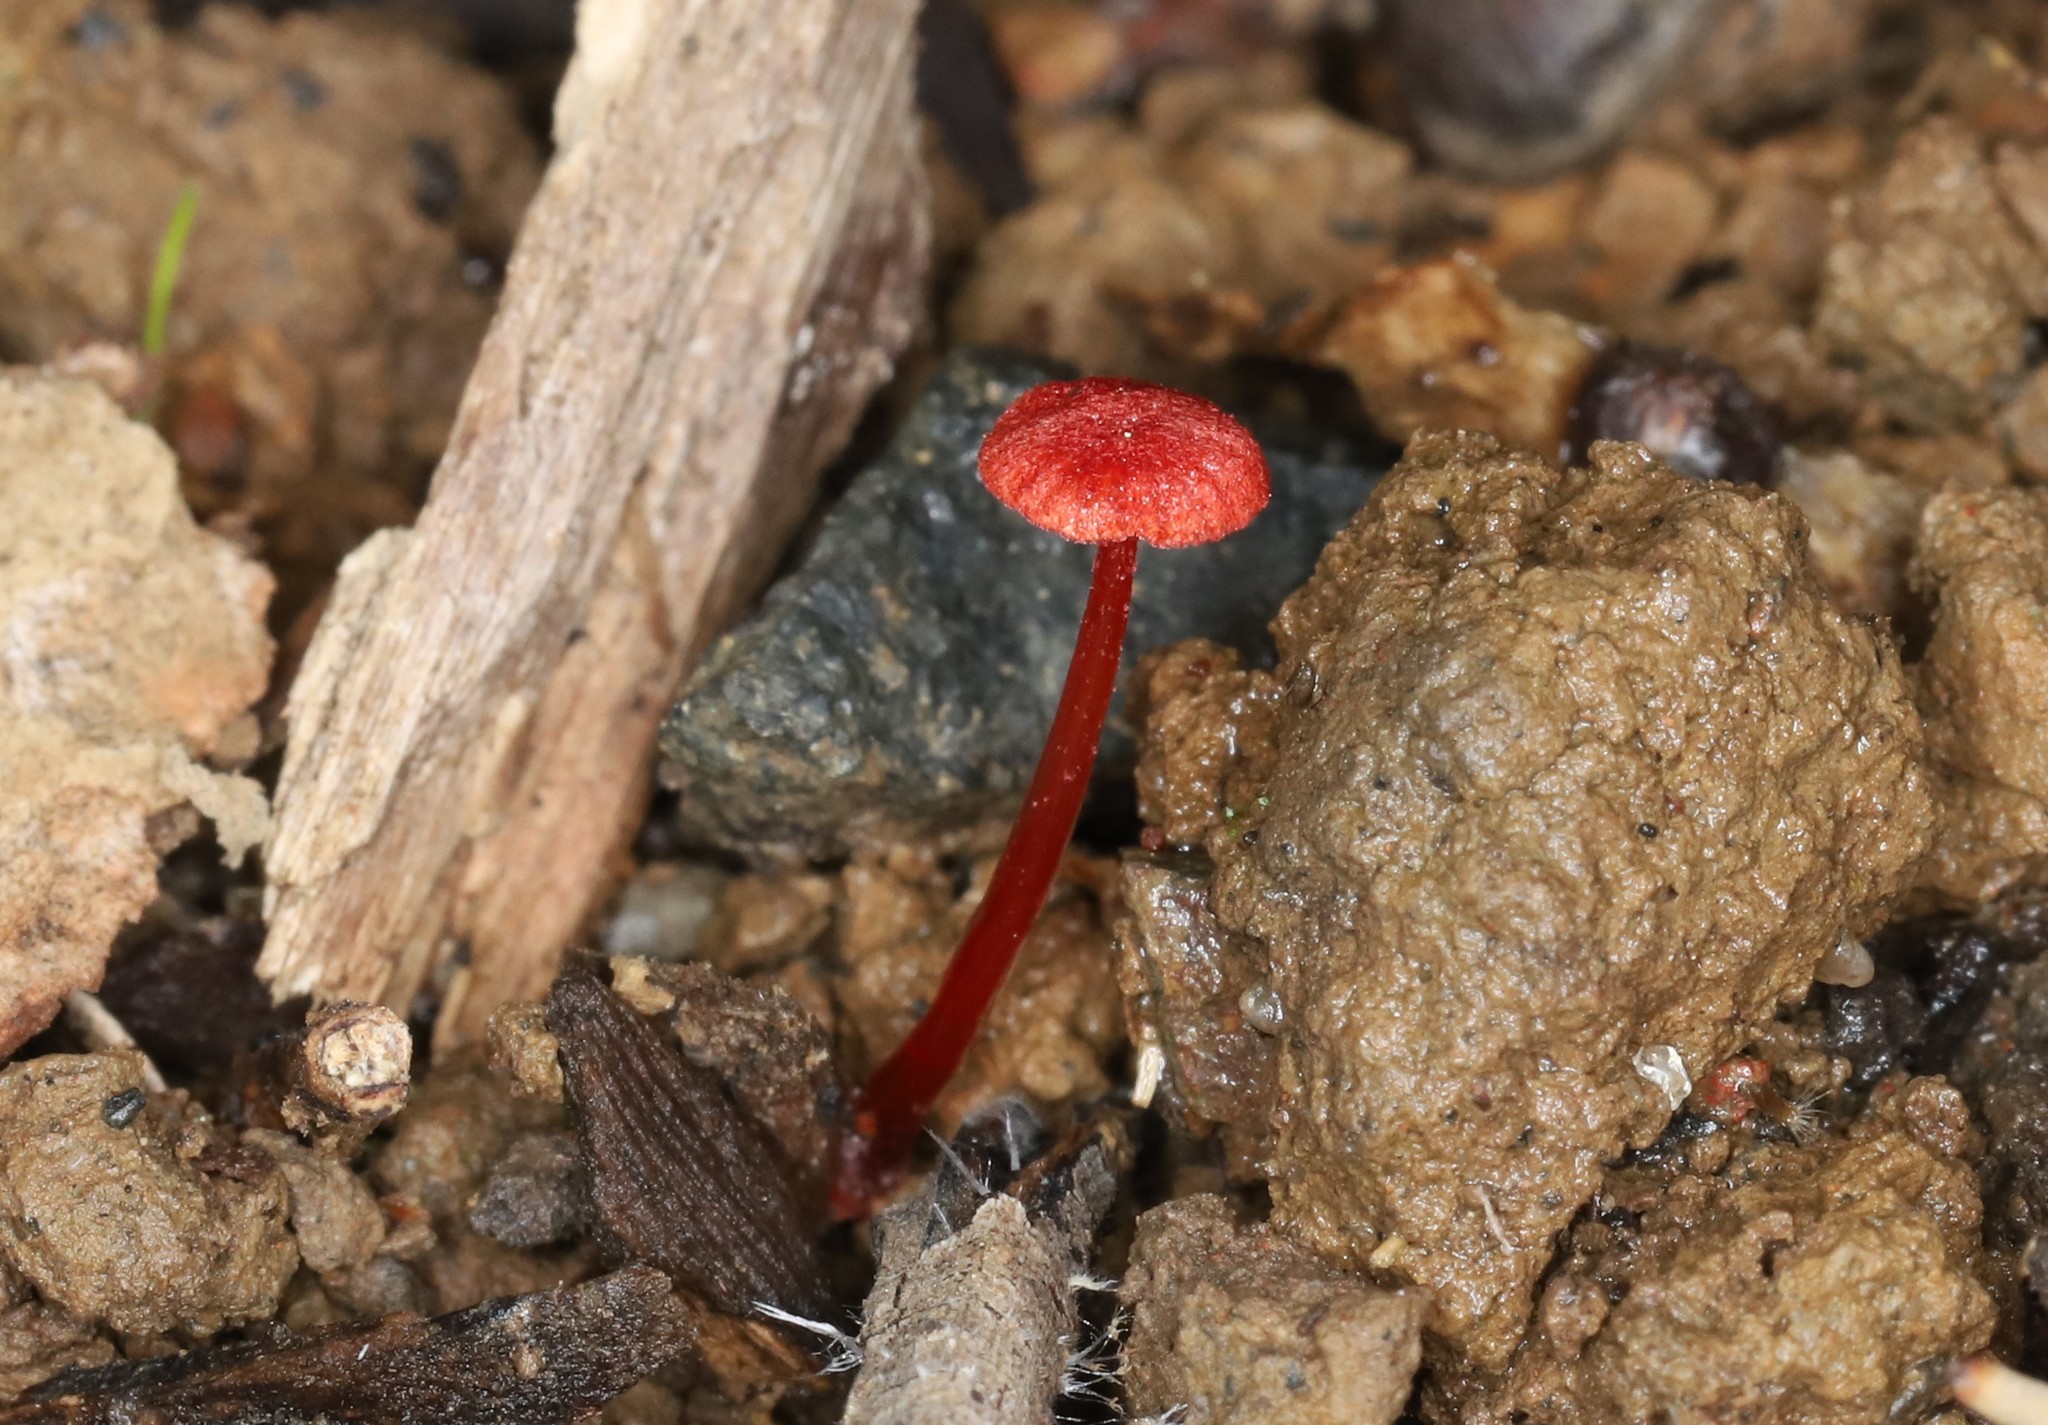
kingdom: Fungi
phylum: Basidiomycota
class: Agaricomycetes
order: Agaricales
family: Mycenaceae
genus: Cruentomycena
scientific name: Cruentomycena viscidocruenta
